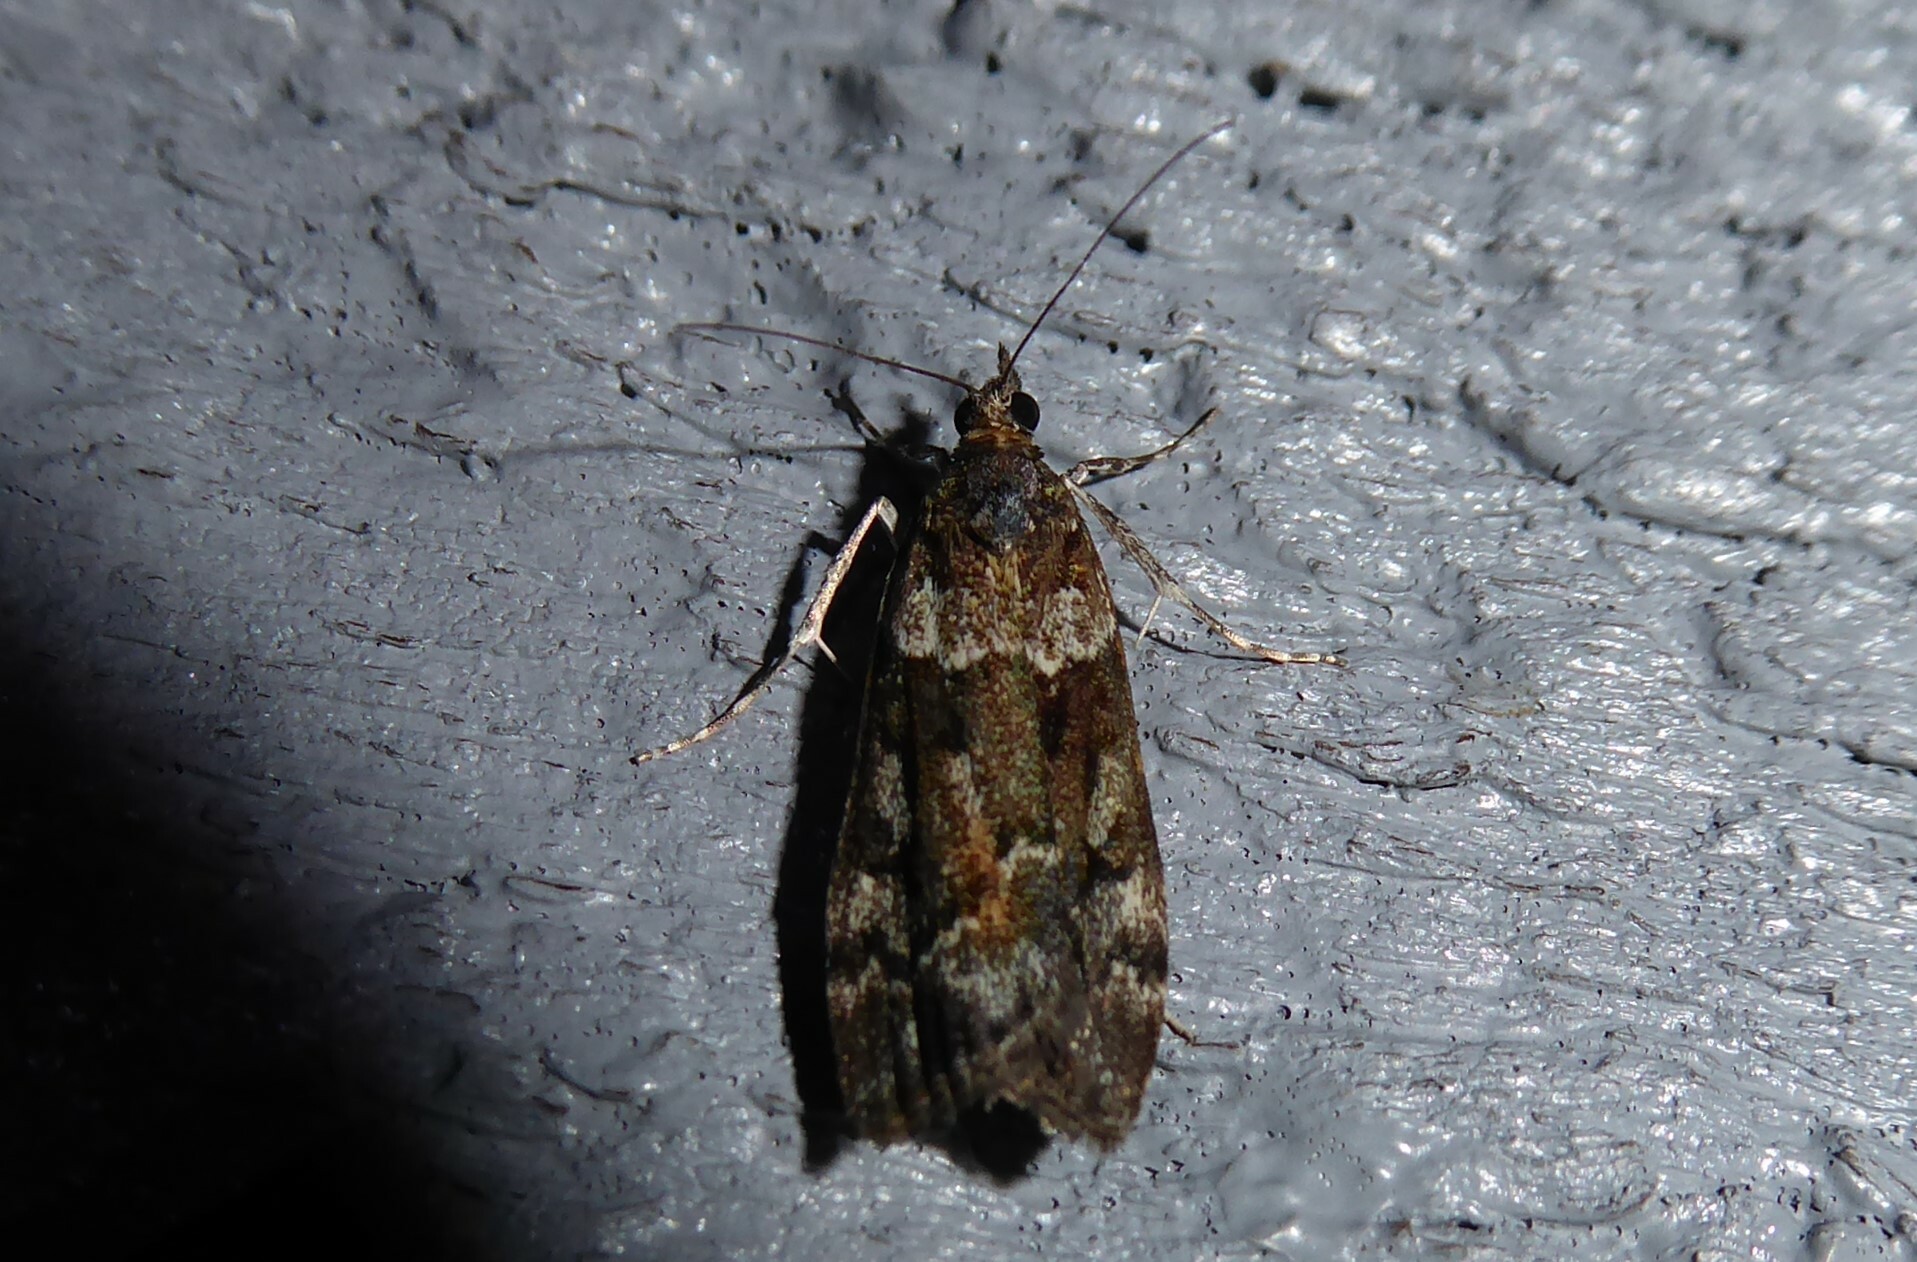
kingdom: Animalia
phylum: Arthropoda
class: Insecta
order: Lepidoptera
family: Crambidae
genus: Eudonia
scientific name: Eudonia submarginalis
